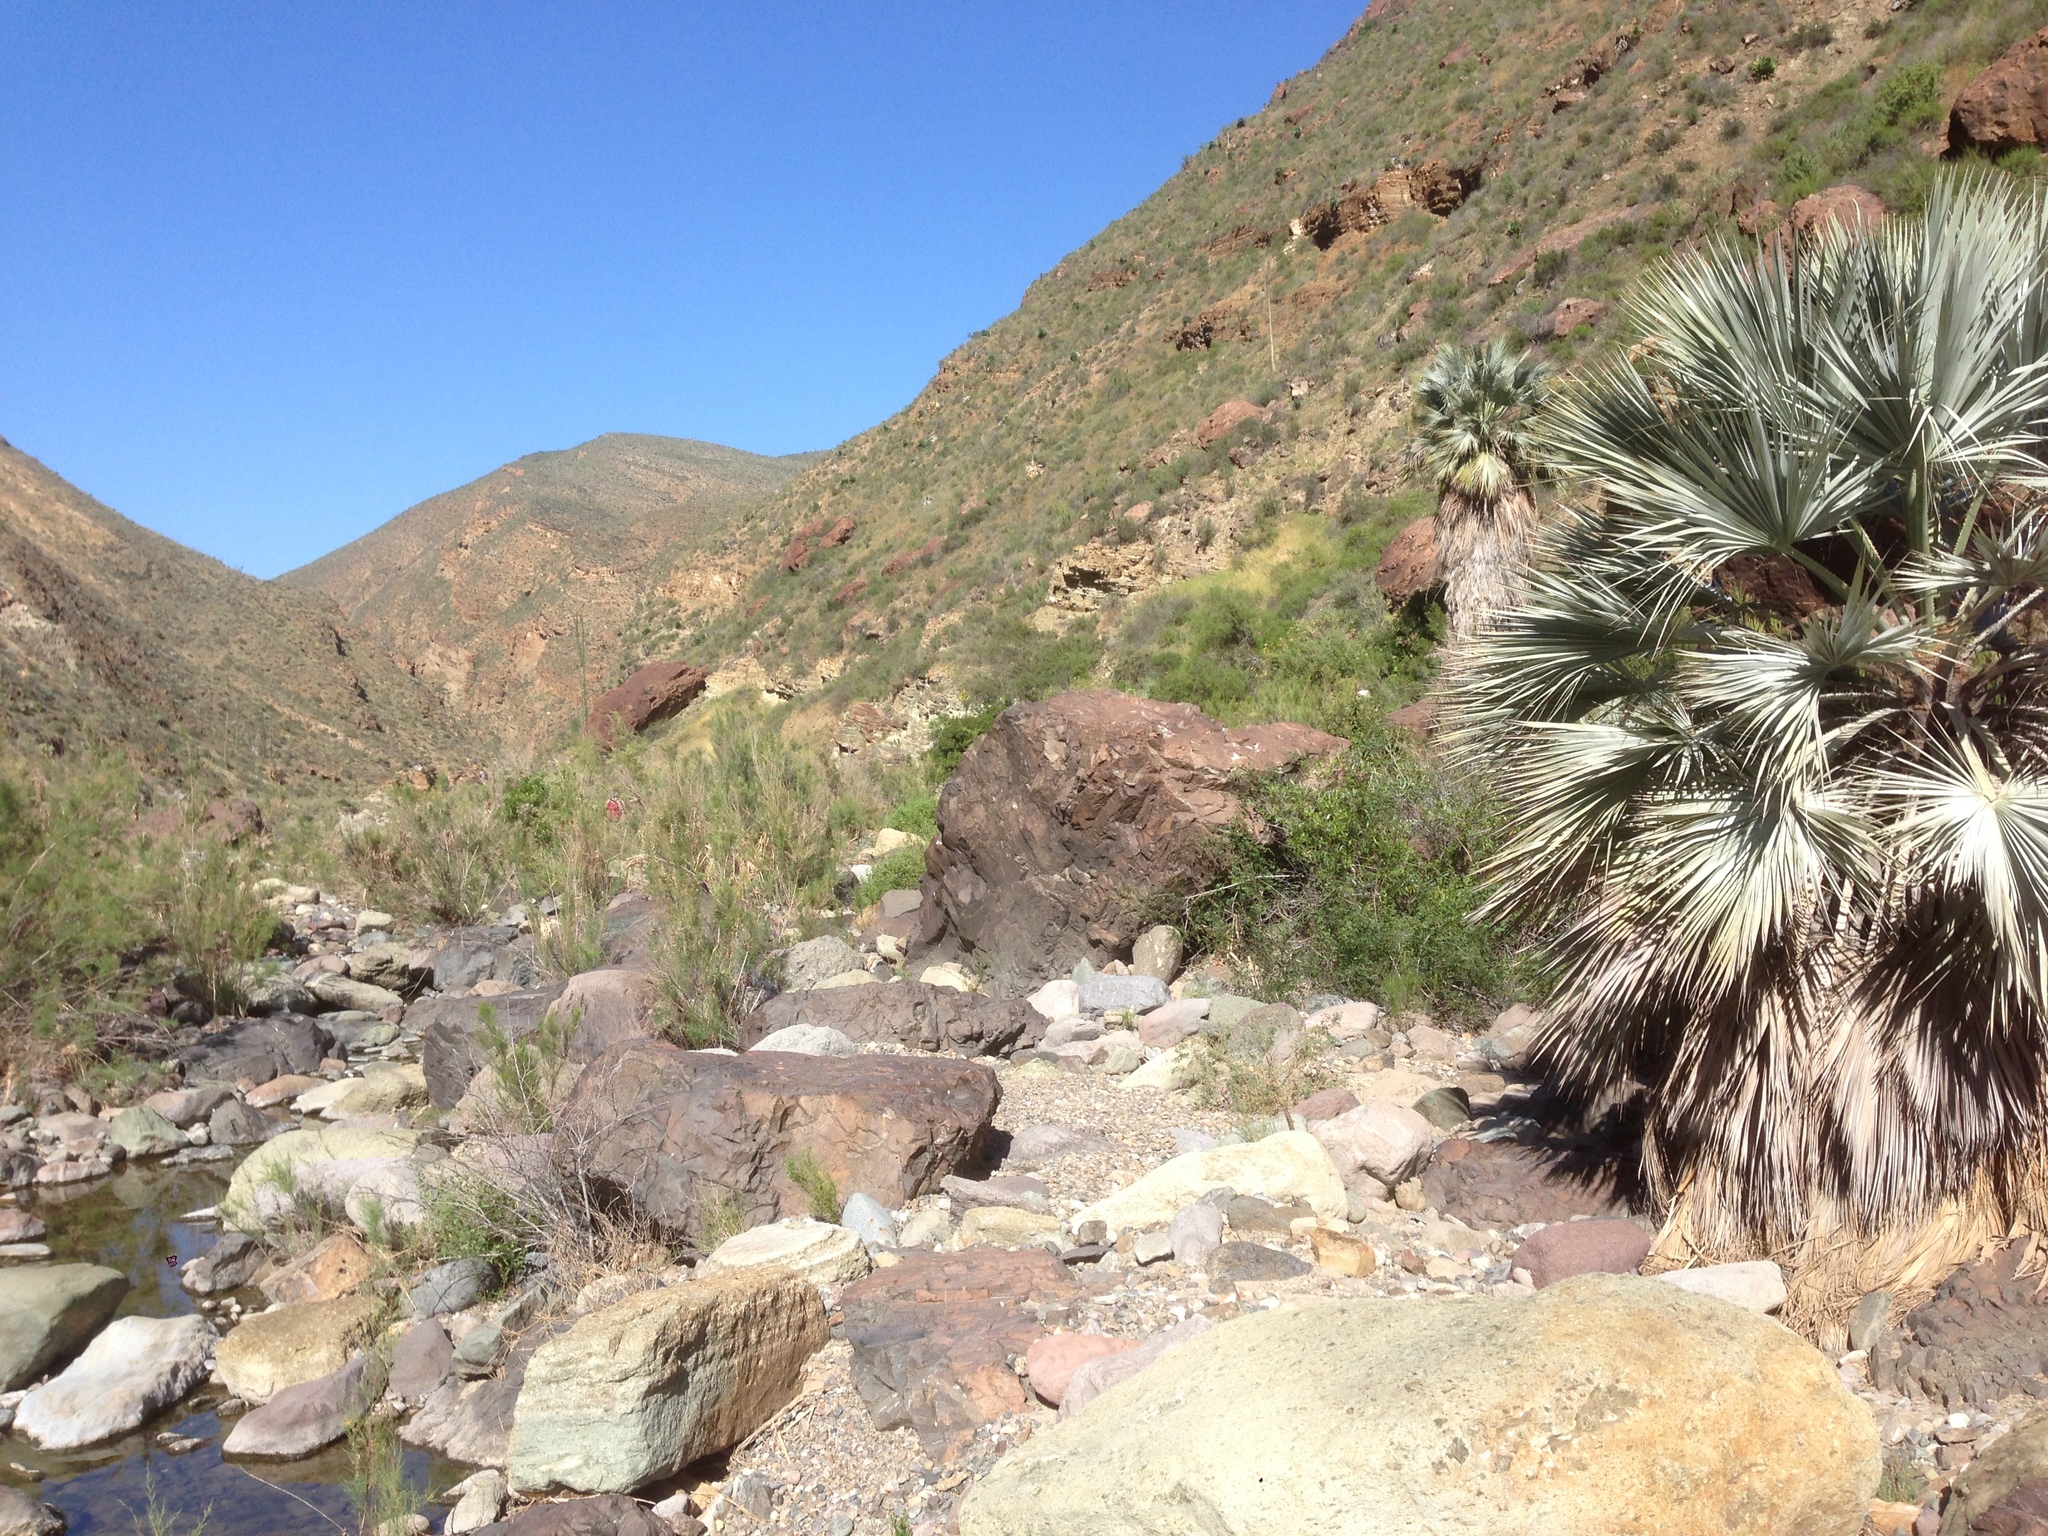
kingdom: Plantae
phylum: Tracheophyta
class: Liliopsida
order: Arecales
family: Arecaceae
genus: Brahea
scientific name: Brahea armata
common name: Mexican blue palm
